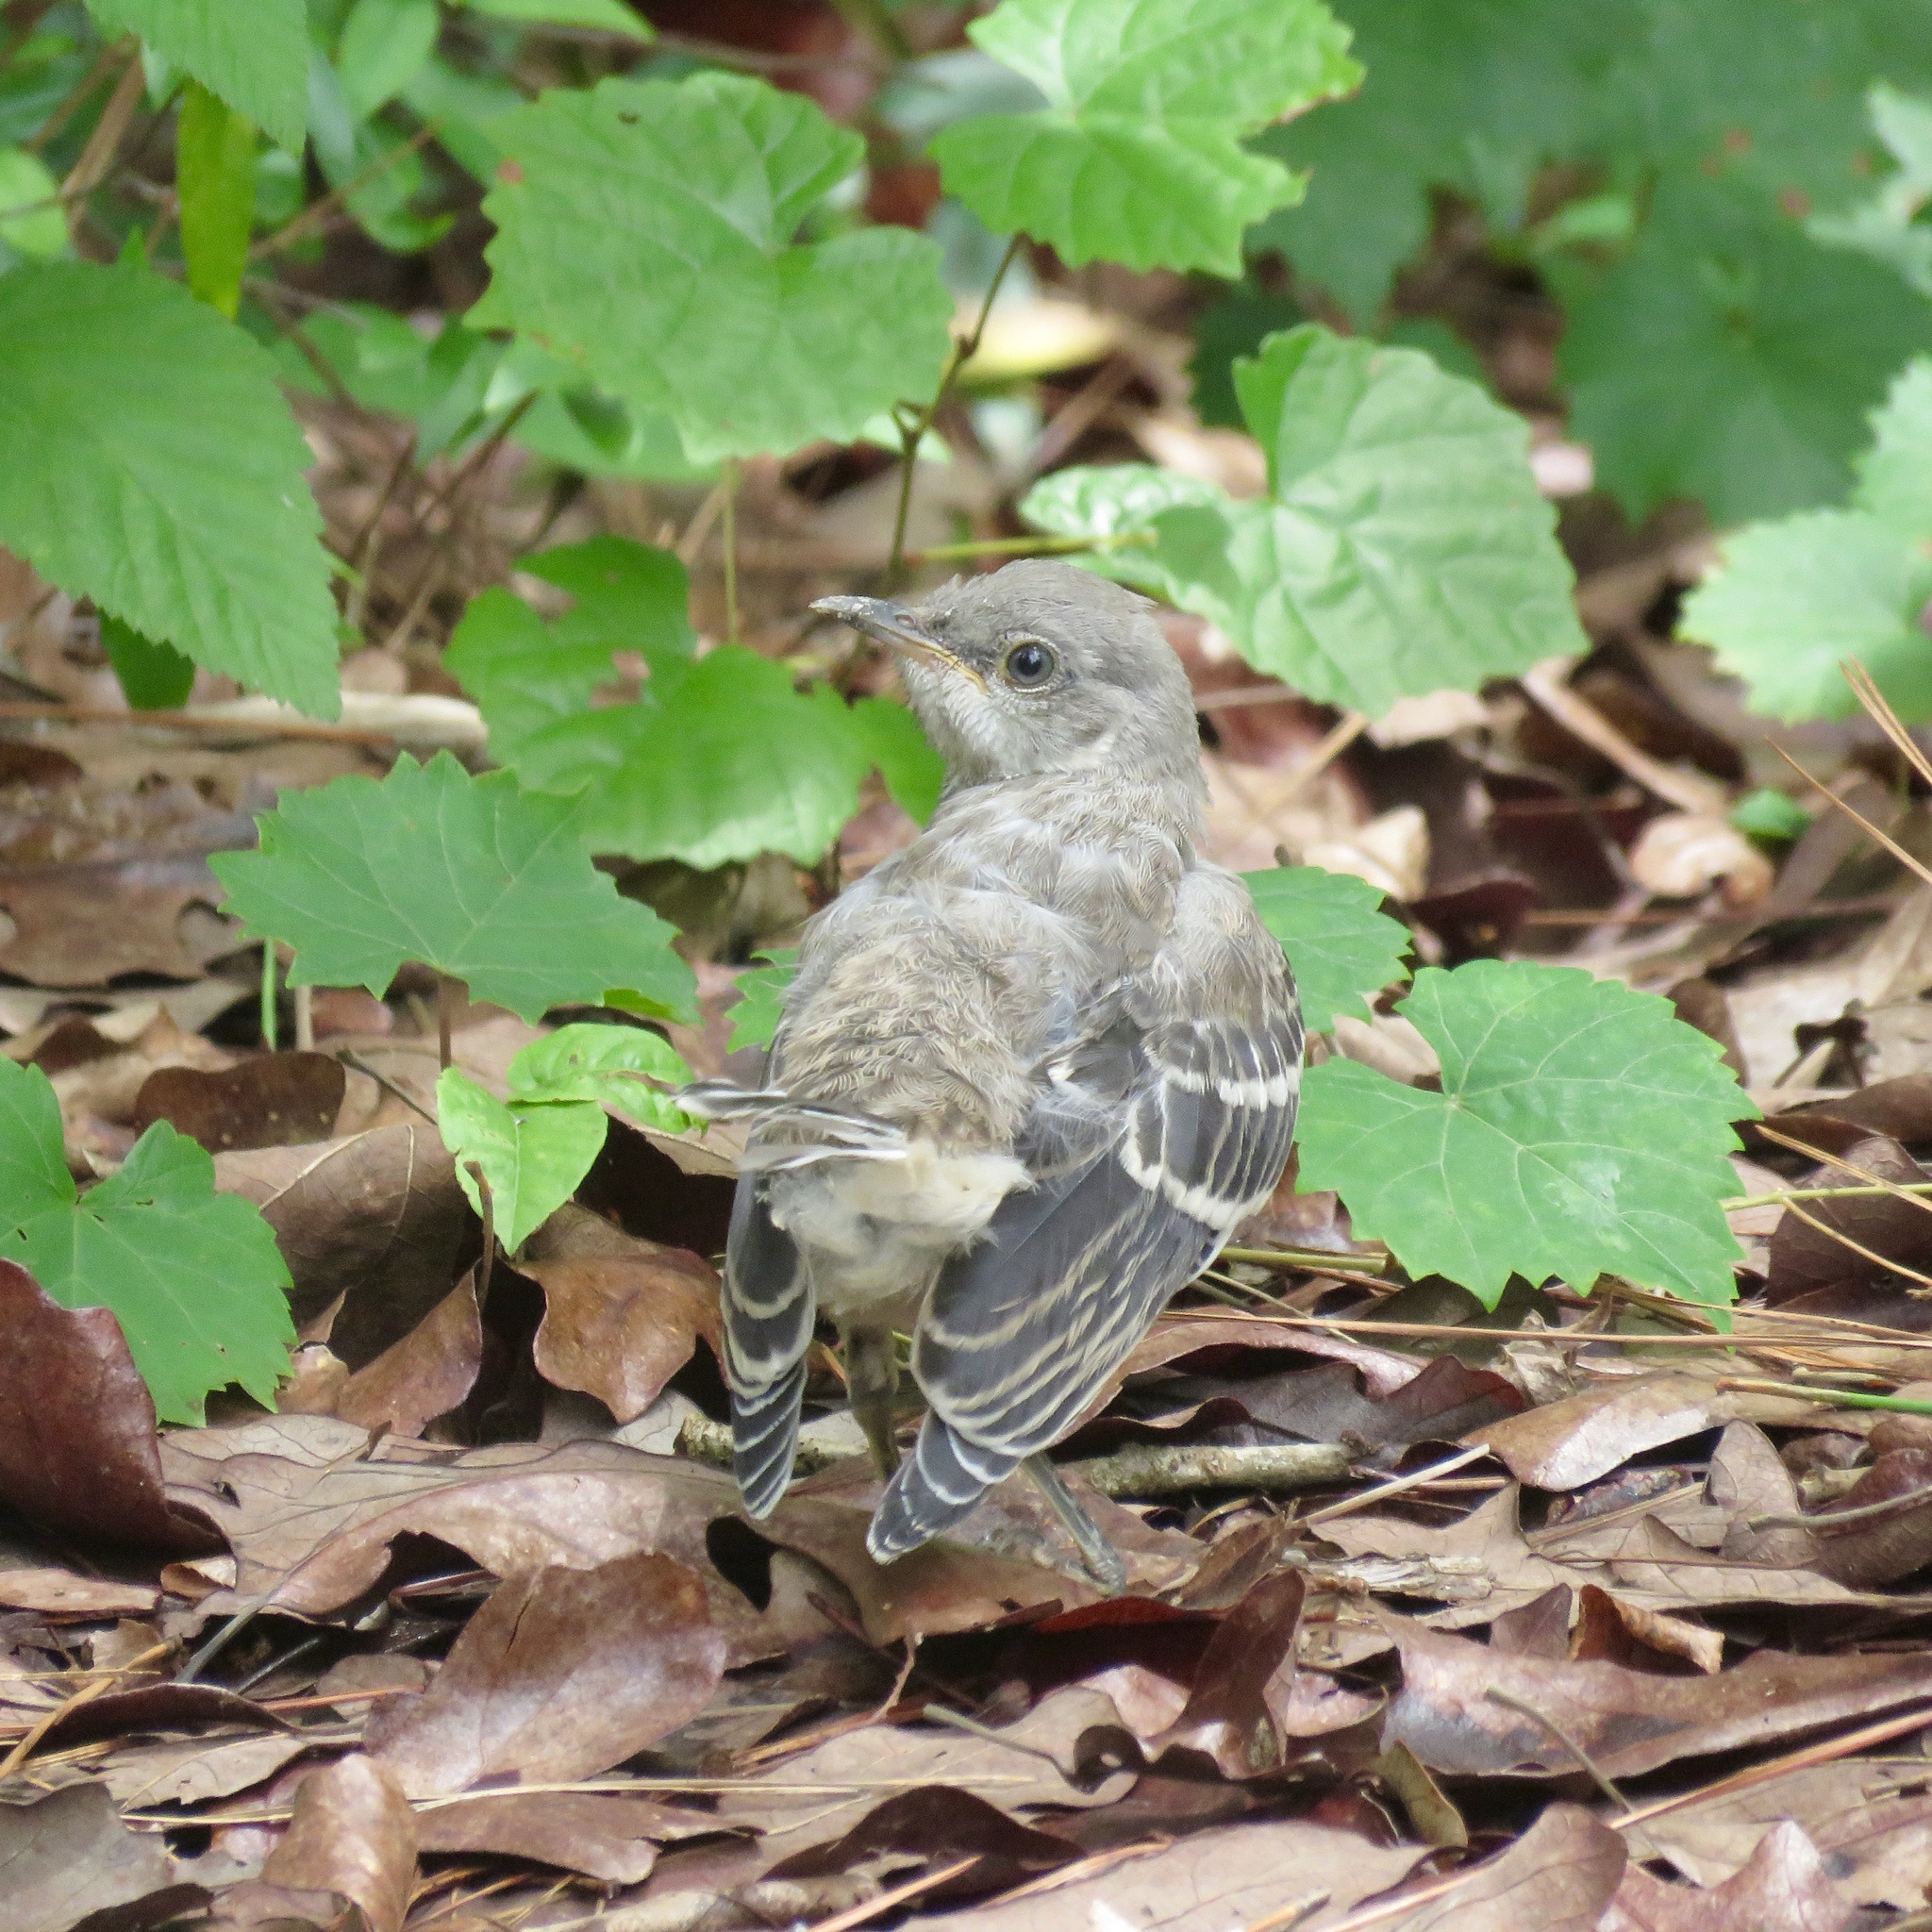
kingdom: Animalia
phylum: Chordata
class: Aves
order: Passeriformes
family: Mimidae
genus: Mimus
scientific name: Mimus polyglottos
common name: Northern mockingbird
